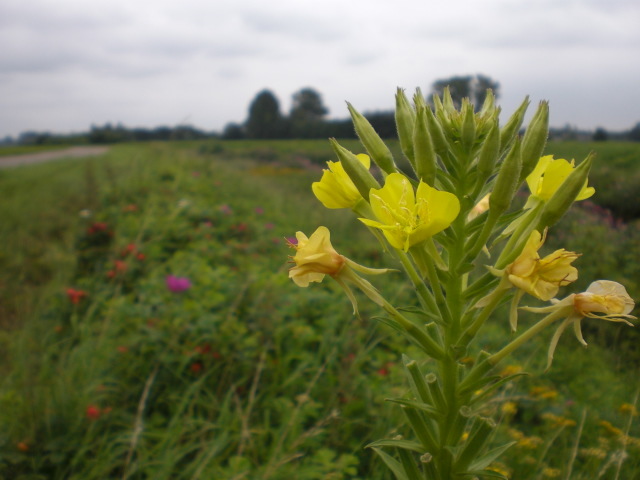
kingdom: Plantae
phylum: Tracheophyta
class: Magnoliopsida
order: Myrtales
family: Onagraceae
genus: Oenothera
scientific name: Oenothera biennis
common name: Common evening-primrose
